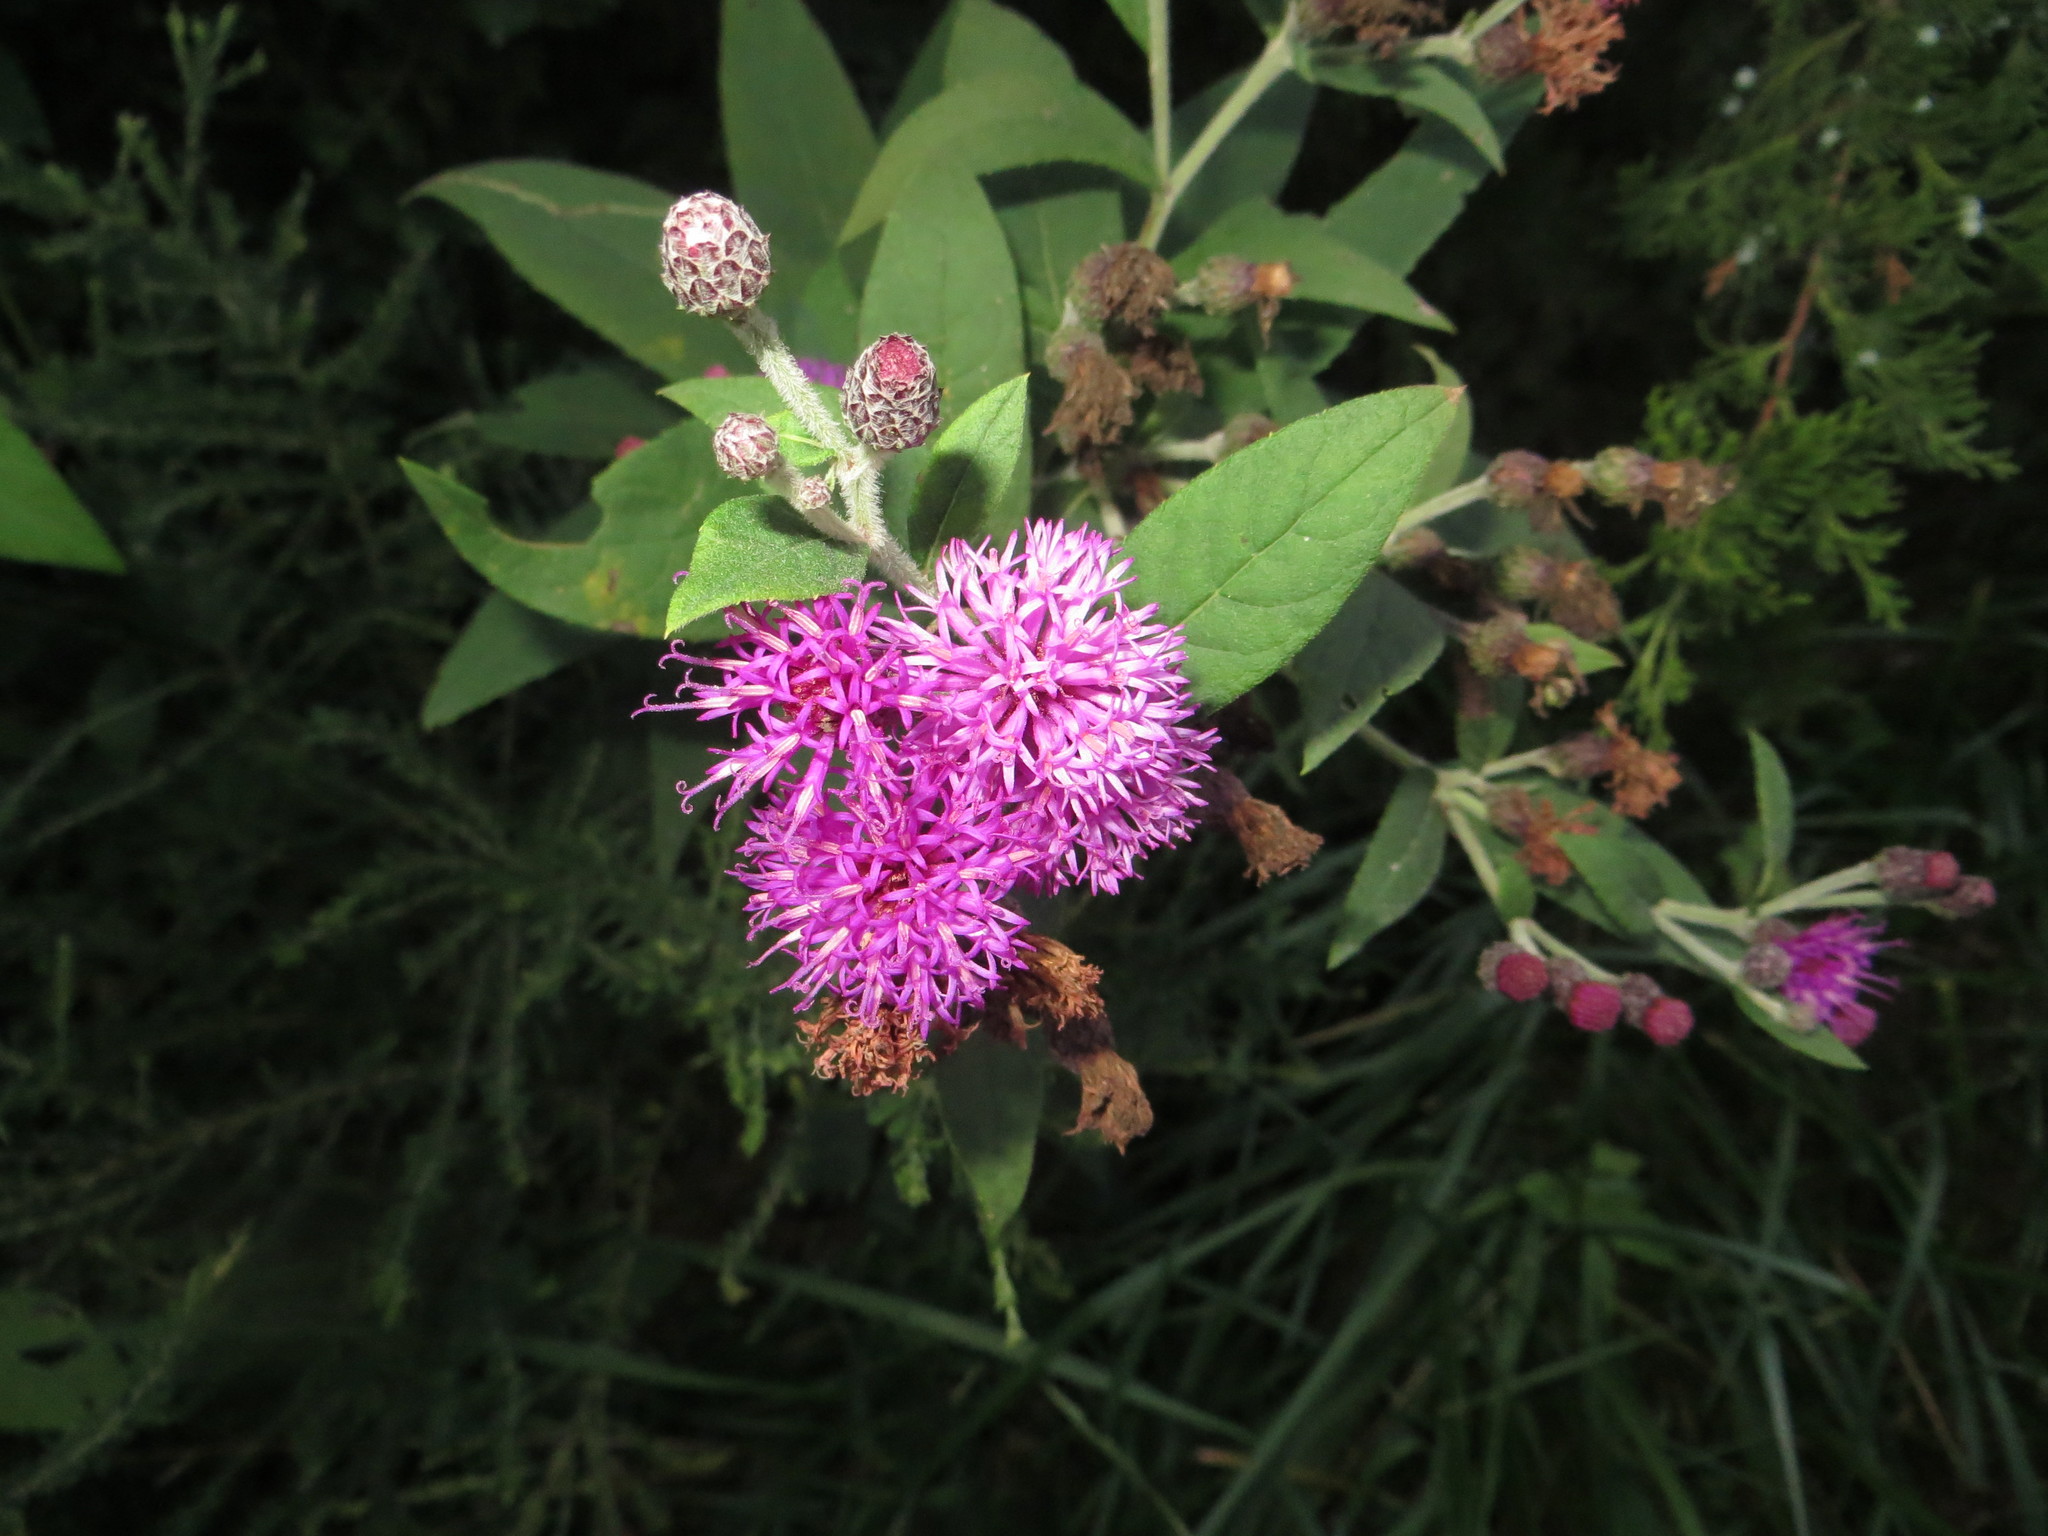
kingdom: Plantae
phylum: Tracheophyta
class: Magnoliopsida
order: Asterales
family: Asteraceae
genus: Vernonia
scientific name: Vernonia missurica
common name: Missouri ironweed
